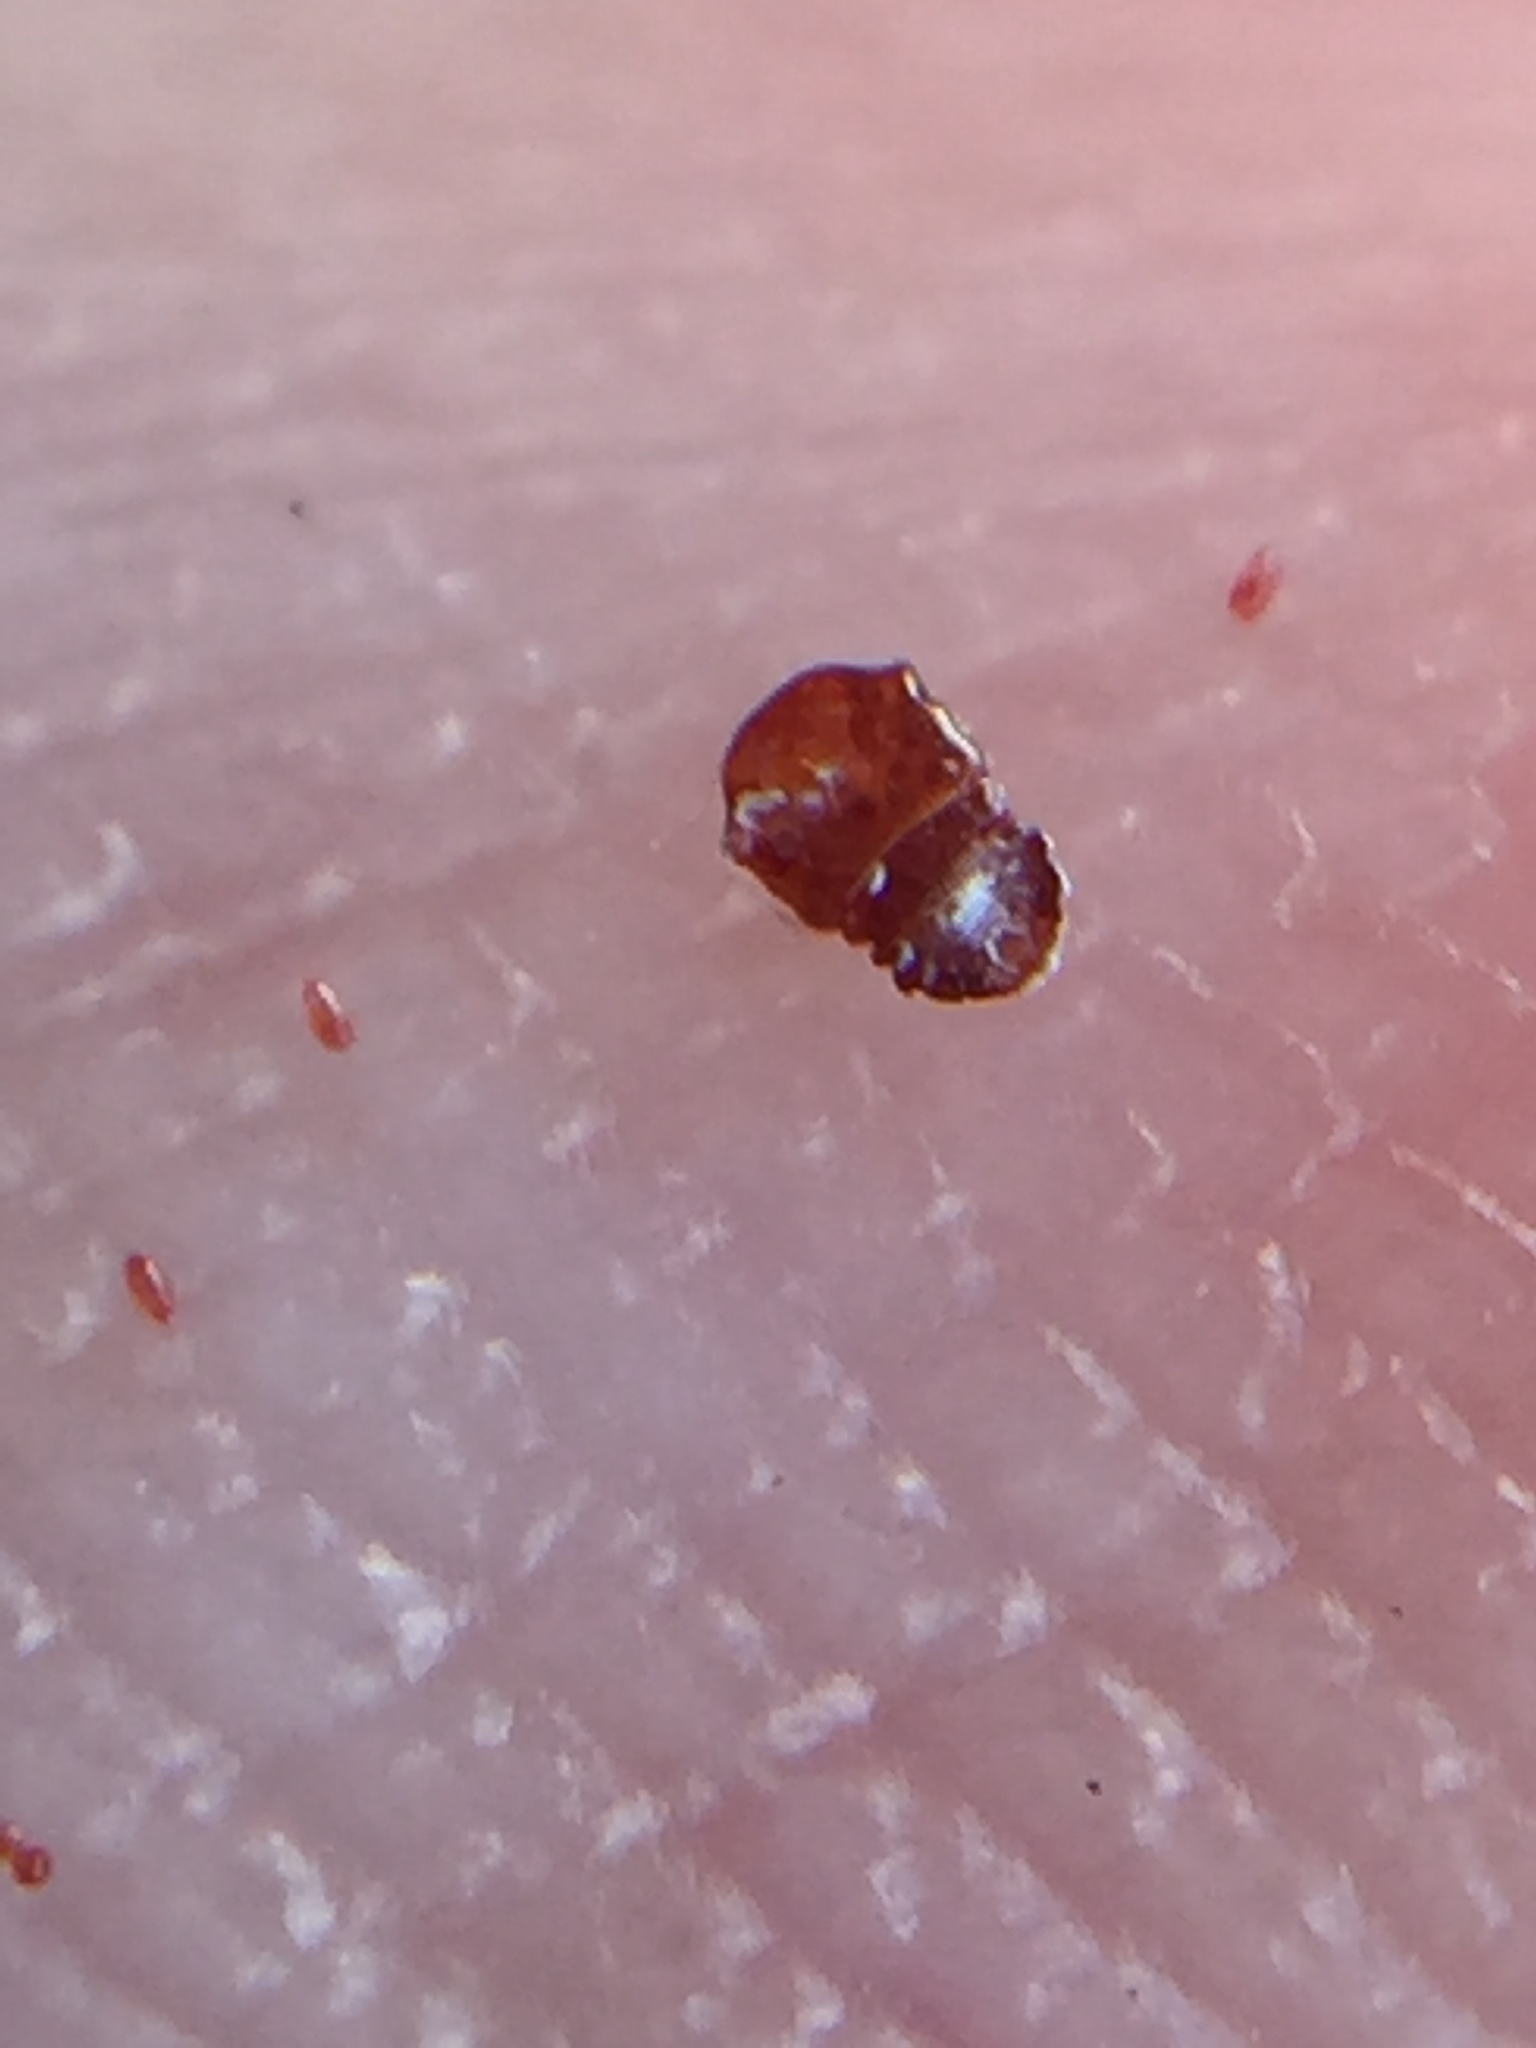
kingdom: Animalia
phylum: Arthropoda
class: Insecta
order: Hemiptera
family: Diaspididae
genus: Aulacaspis
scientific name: Aulacaspis rosarum
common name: Asiatic rose scale
